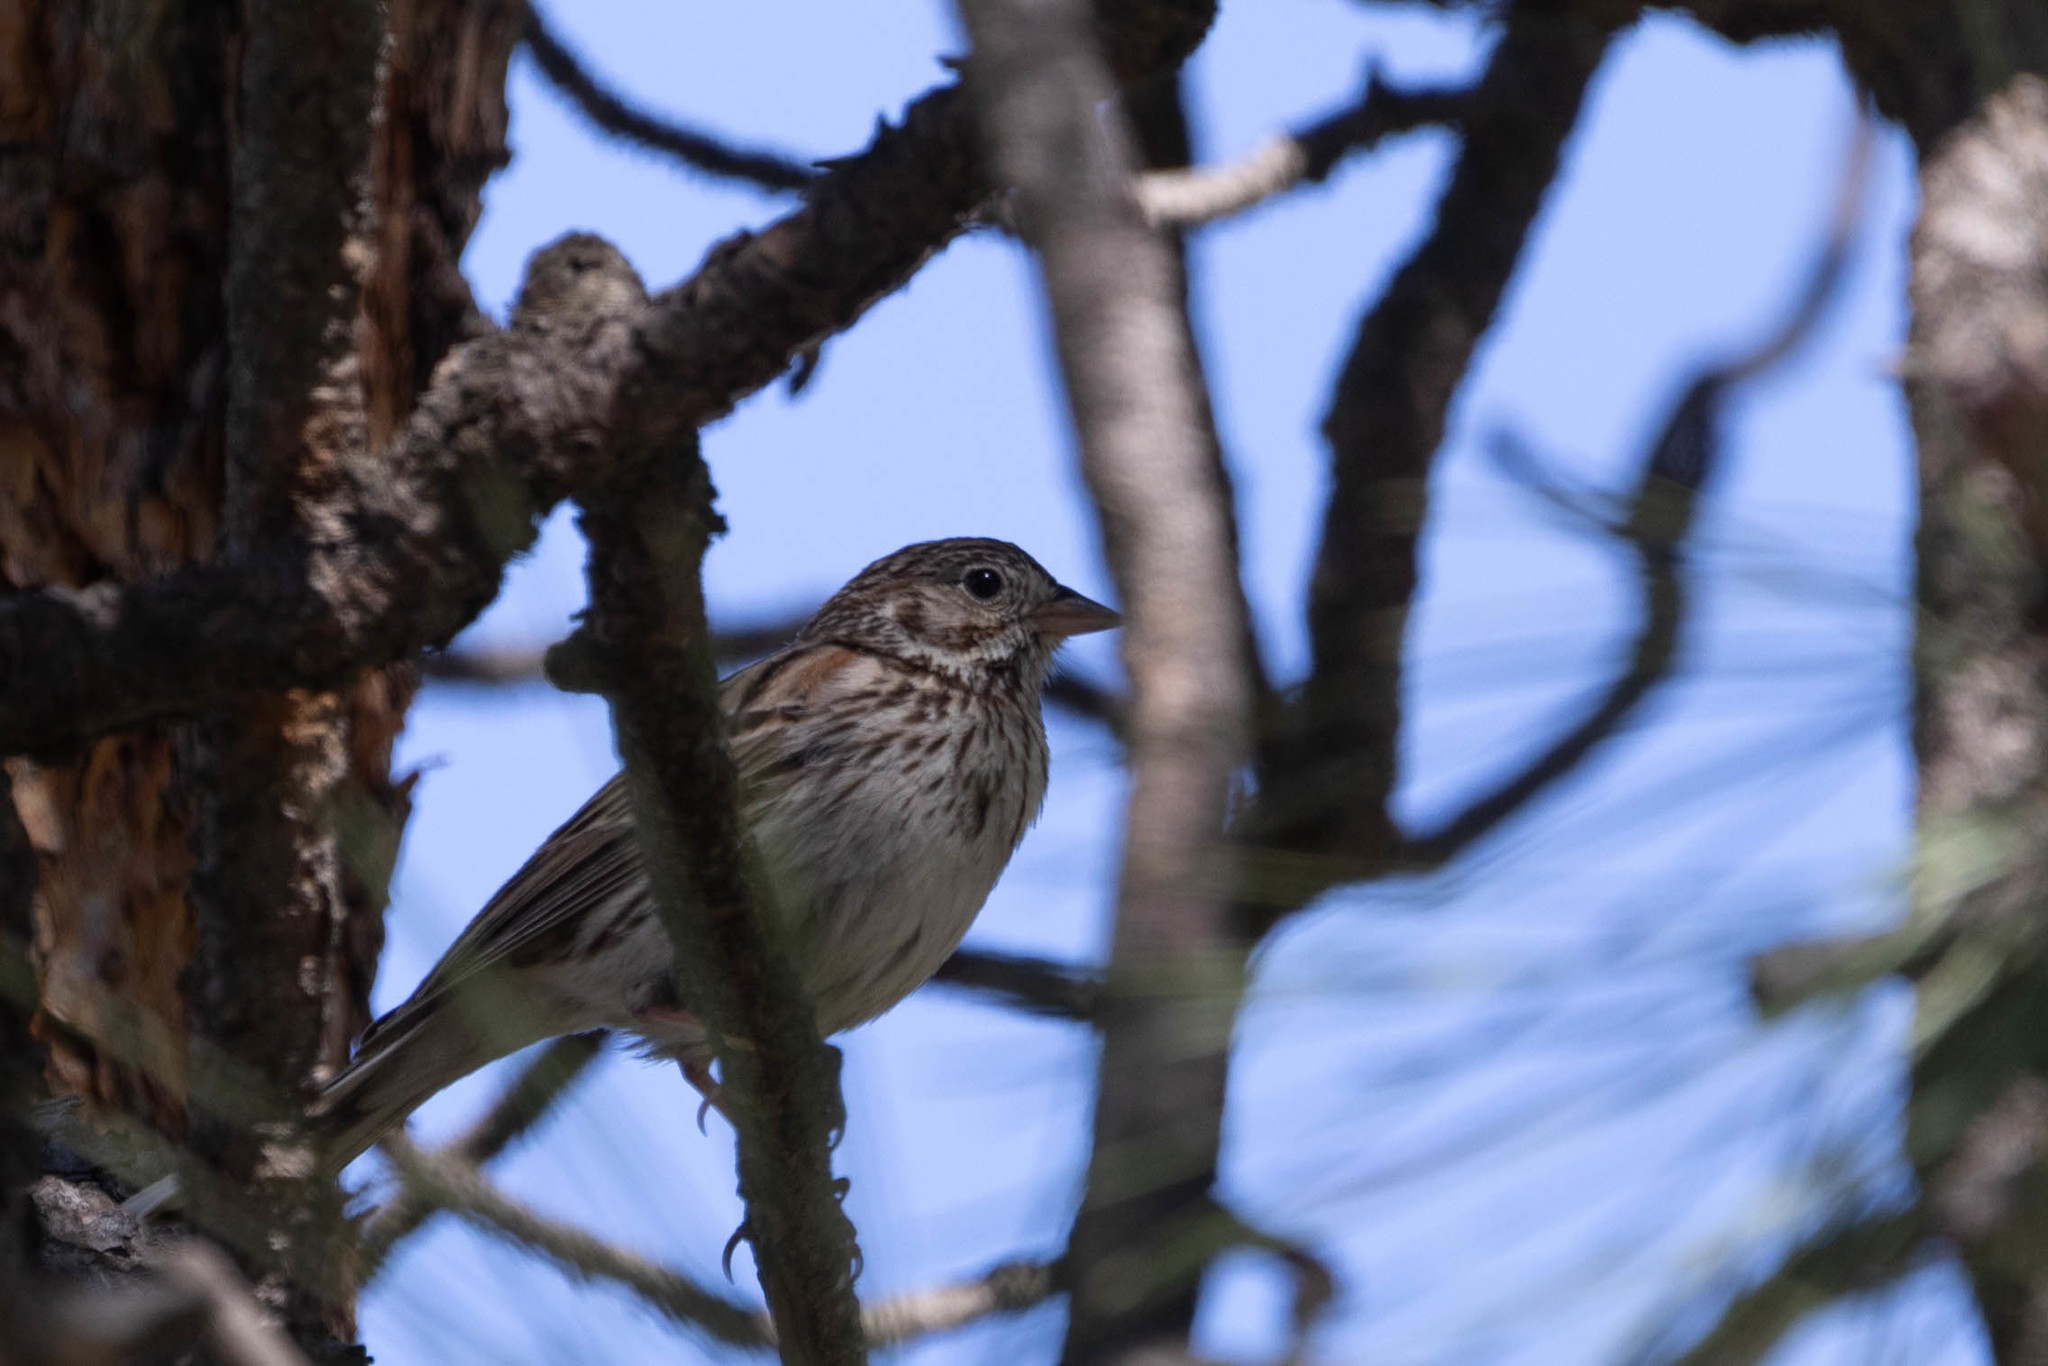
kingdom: Animalia
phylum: Chordata
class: Aves
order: Passeriformes
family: Passerellidae
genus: Pooecetes
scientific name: Pooecetes gramineus
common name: Vesper sparrow
